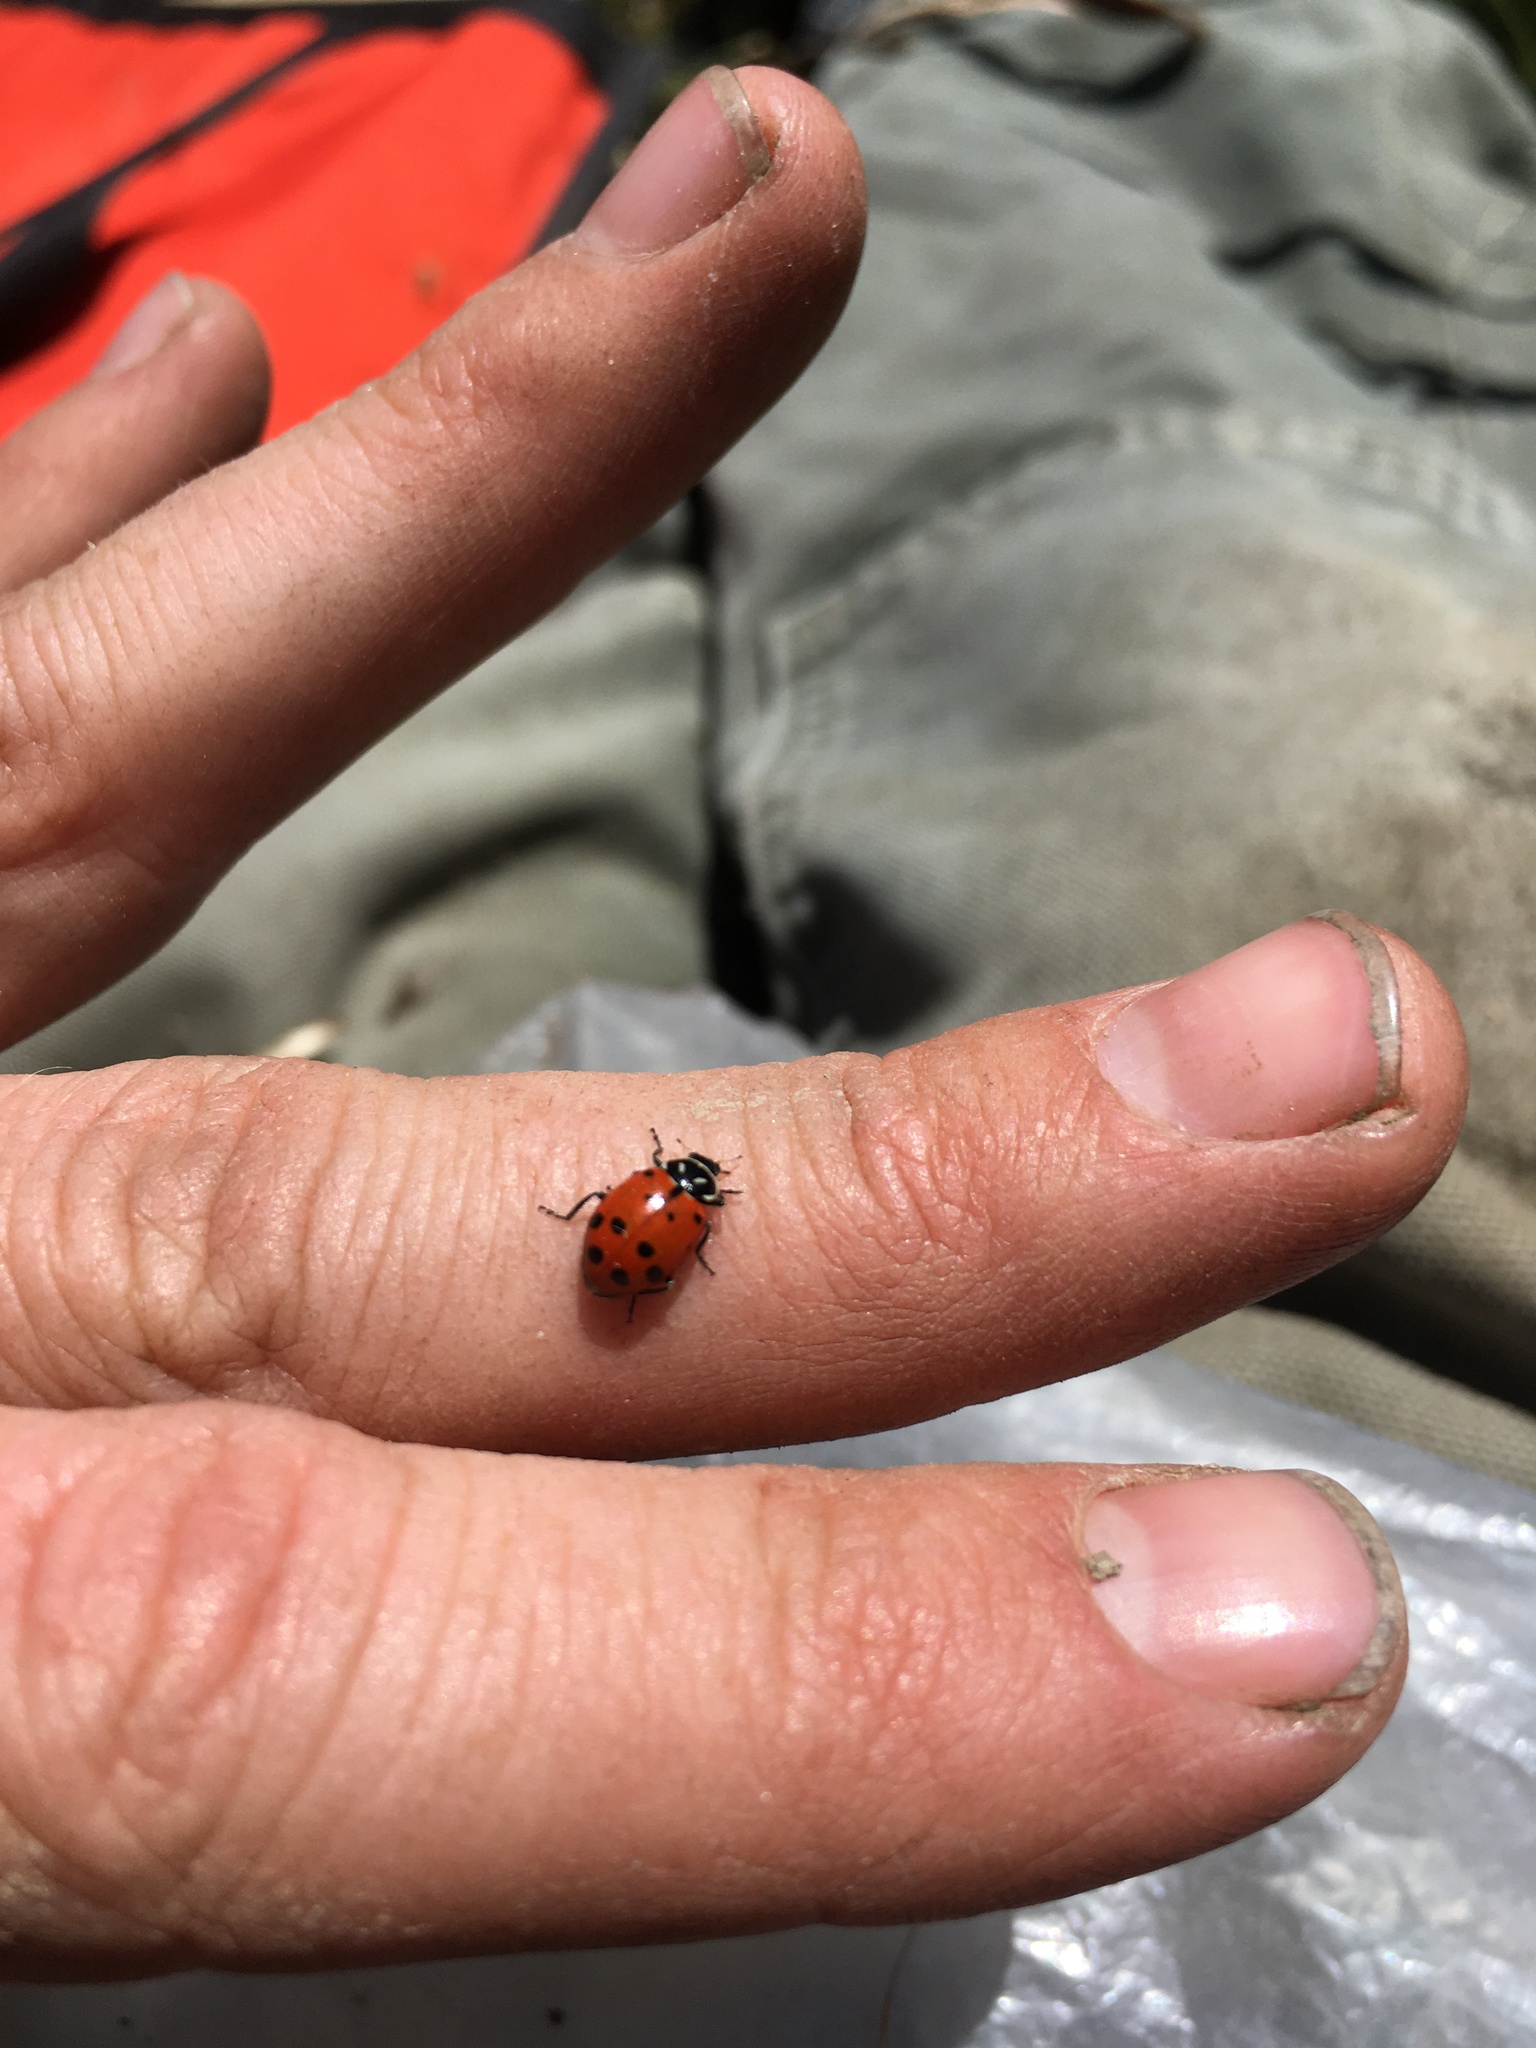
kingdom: Animalia
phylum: Arthropoda
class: Insecta
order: Coleoptera
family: Coccinellidae
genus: Hippodamia
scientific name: Hippodamia convergens
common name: Convergent lady beetle
